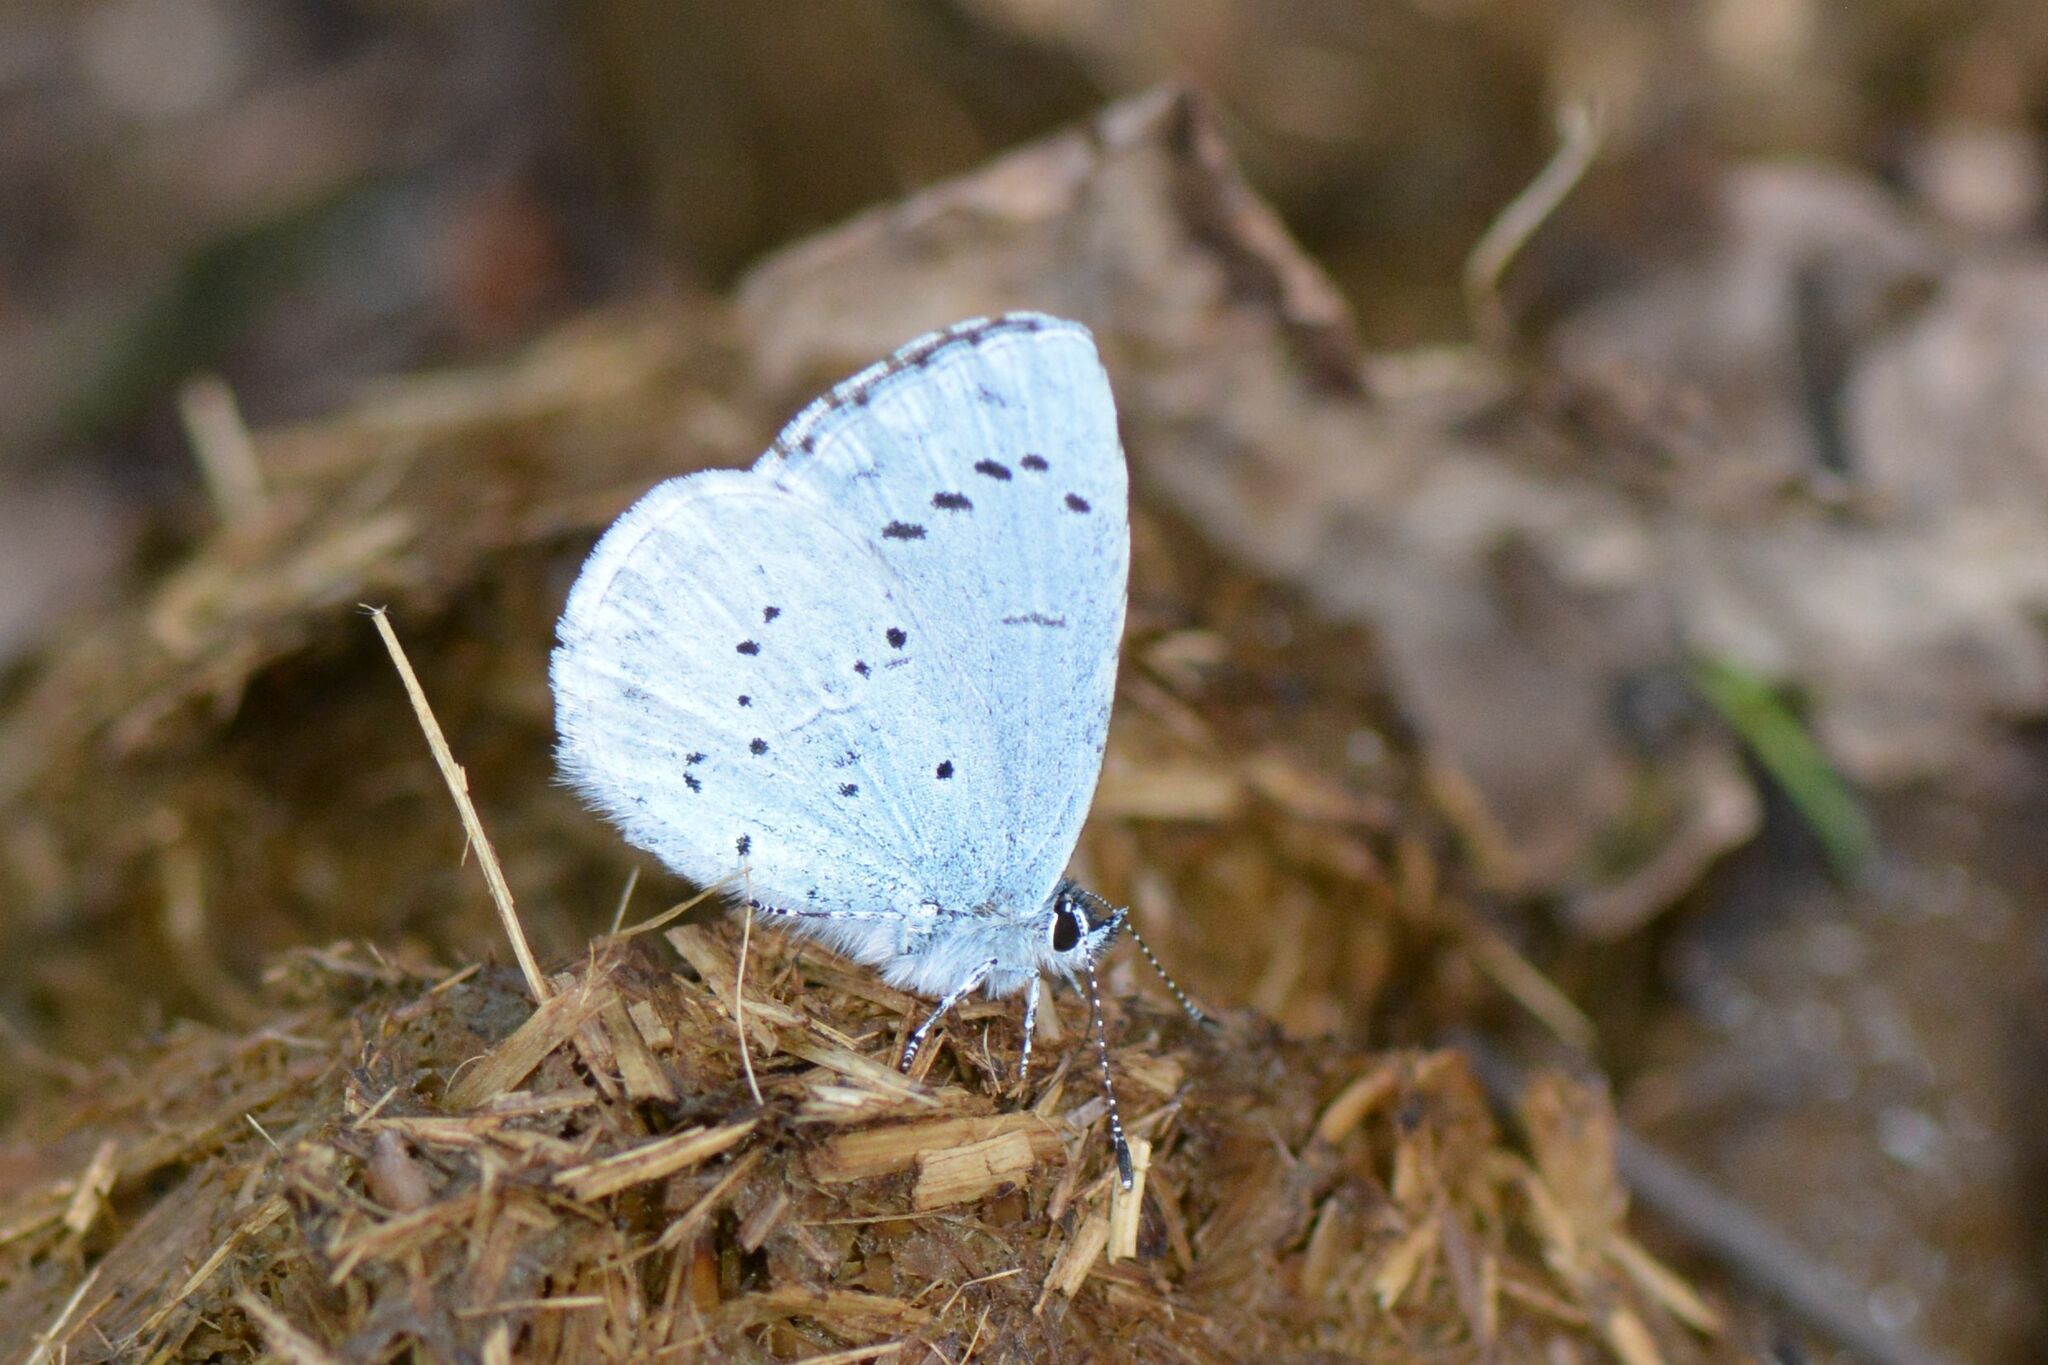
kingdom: Animalia
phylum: Arthropoda
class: Insecta
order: Lepidoptera
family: Lycaenidae
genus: Celastrina
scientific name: Celastrina argiolus
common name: Holly blue
